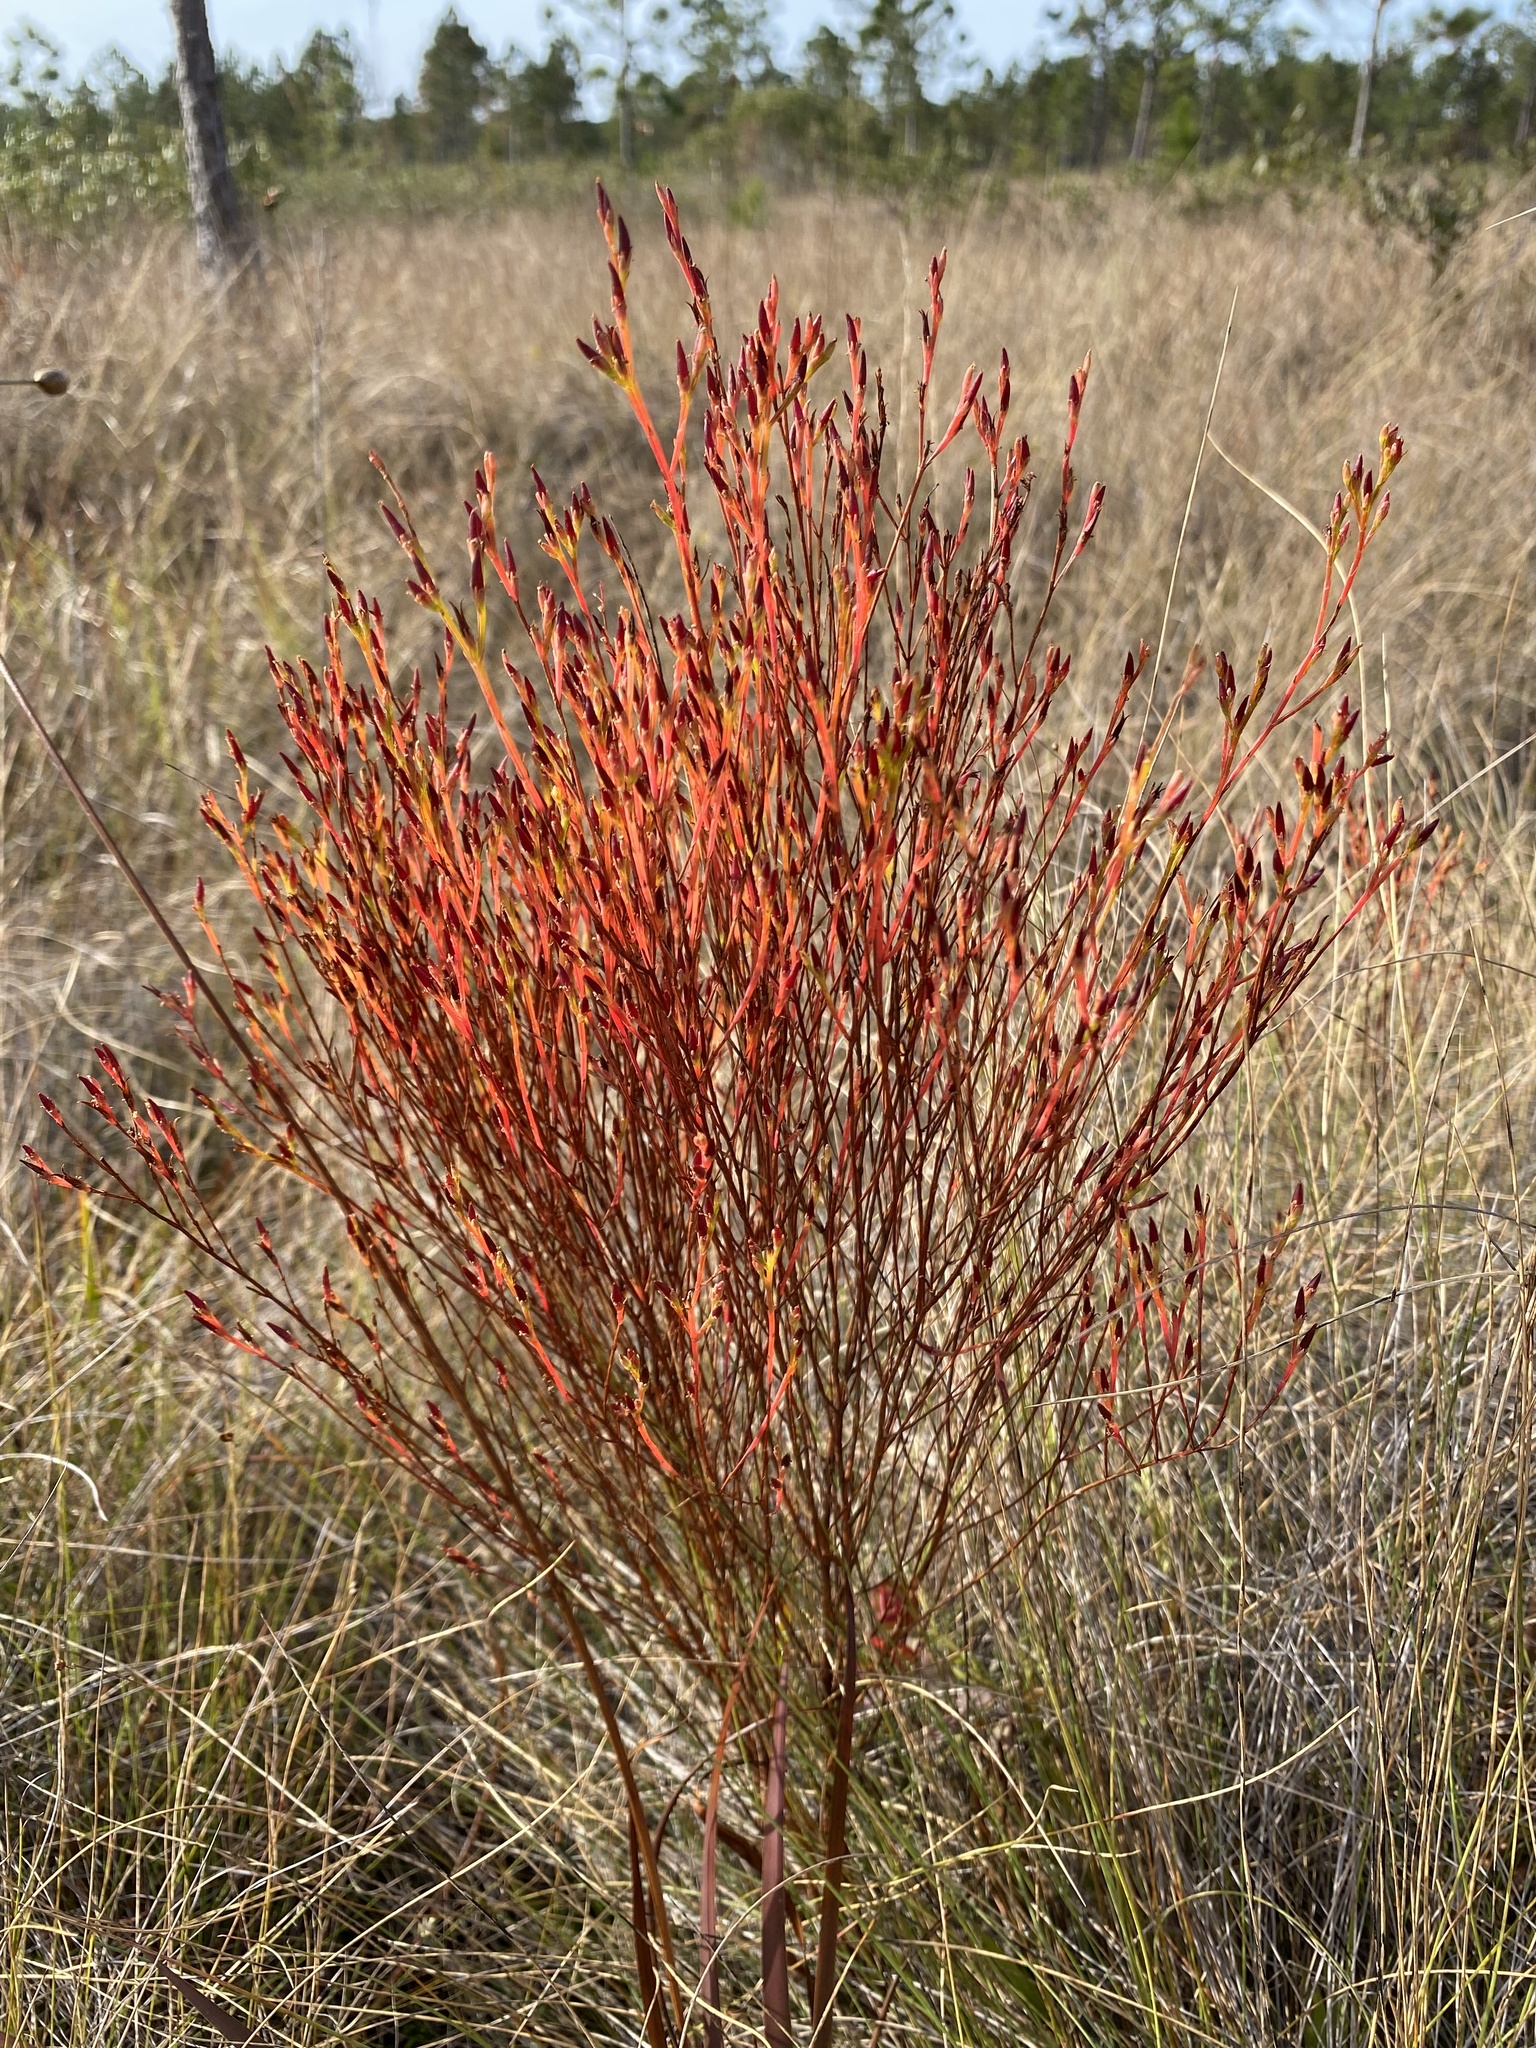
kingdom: Plantae
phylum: Tracheophyta
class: Magnoliopsida
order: Malpighiales
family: Hypericaceae
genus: Hypericum
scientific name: Hypericum gentianoides
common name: Gentian-leaved st. john's-wort
